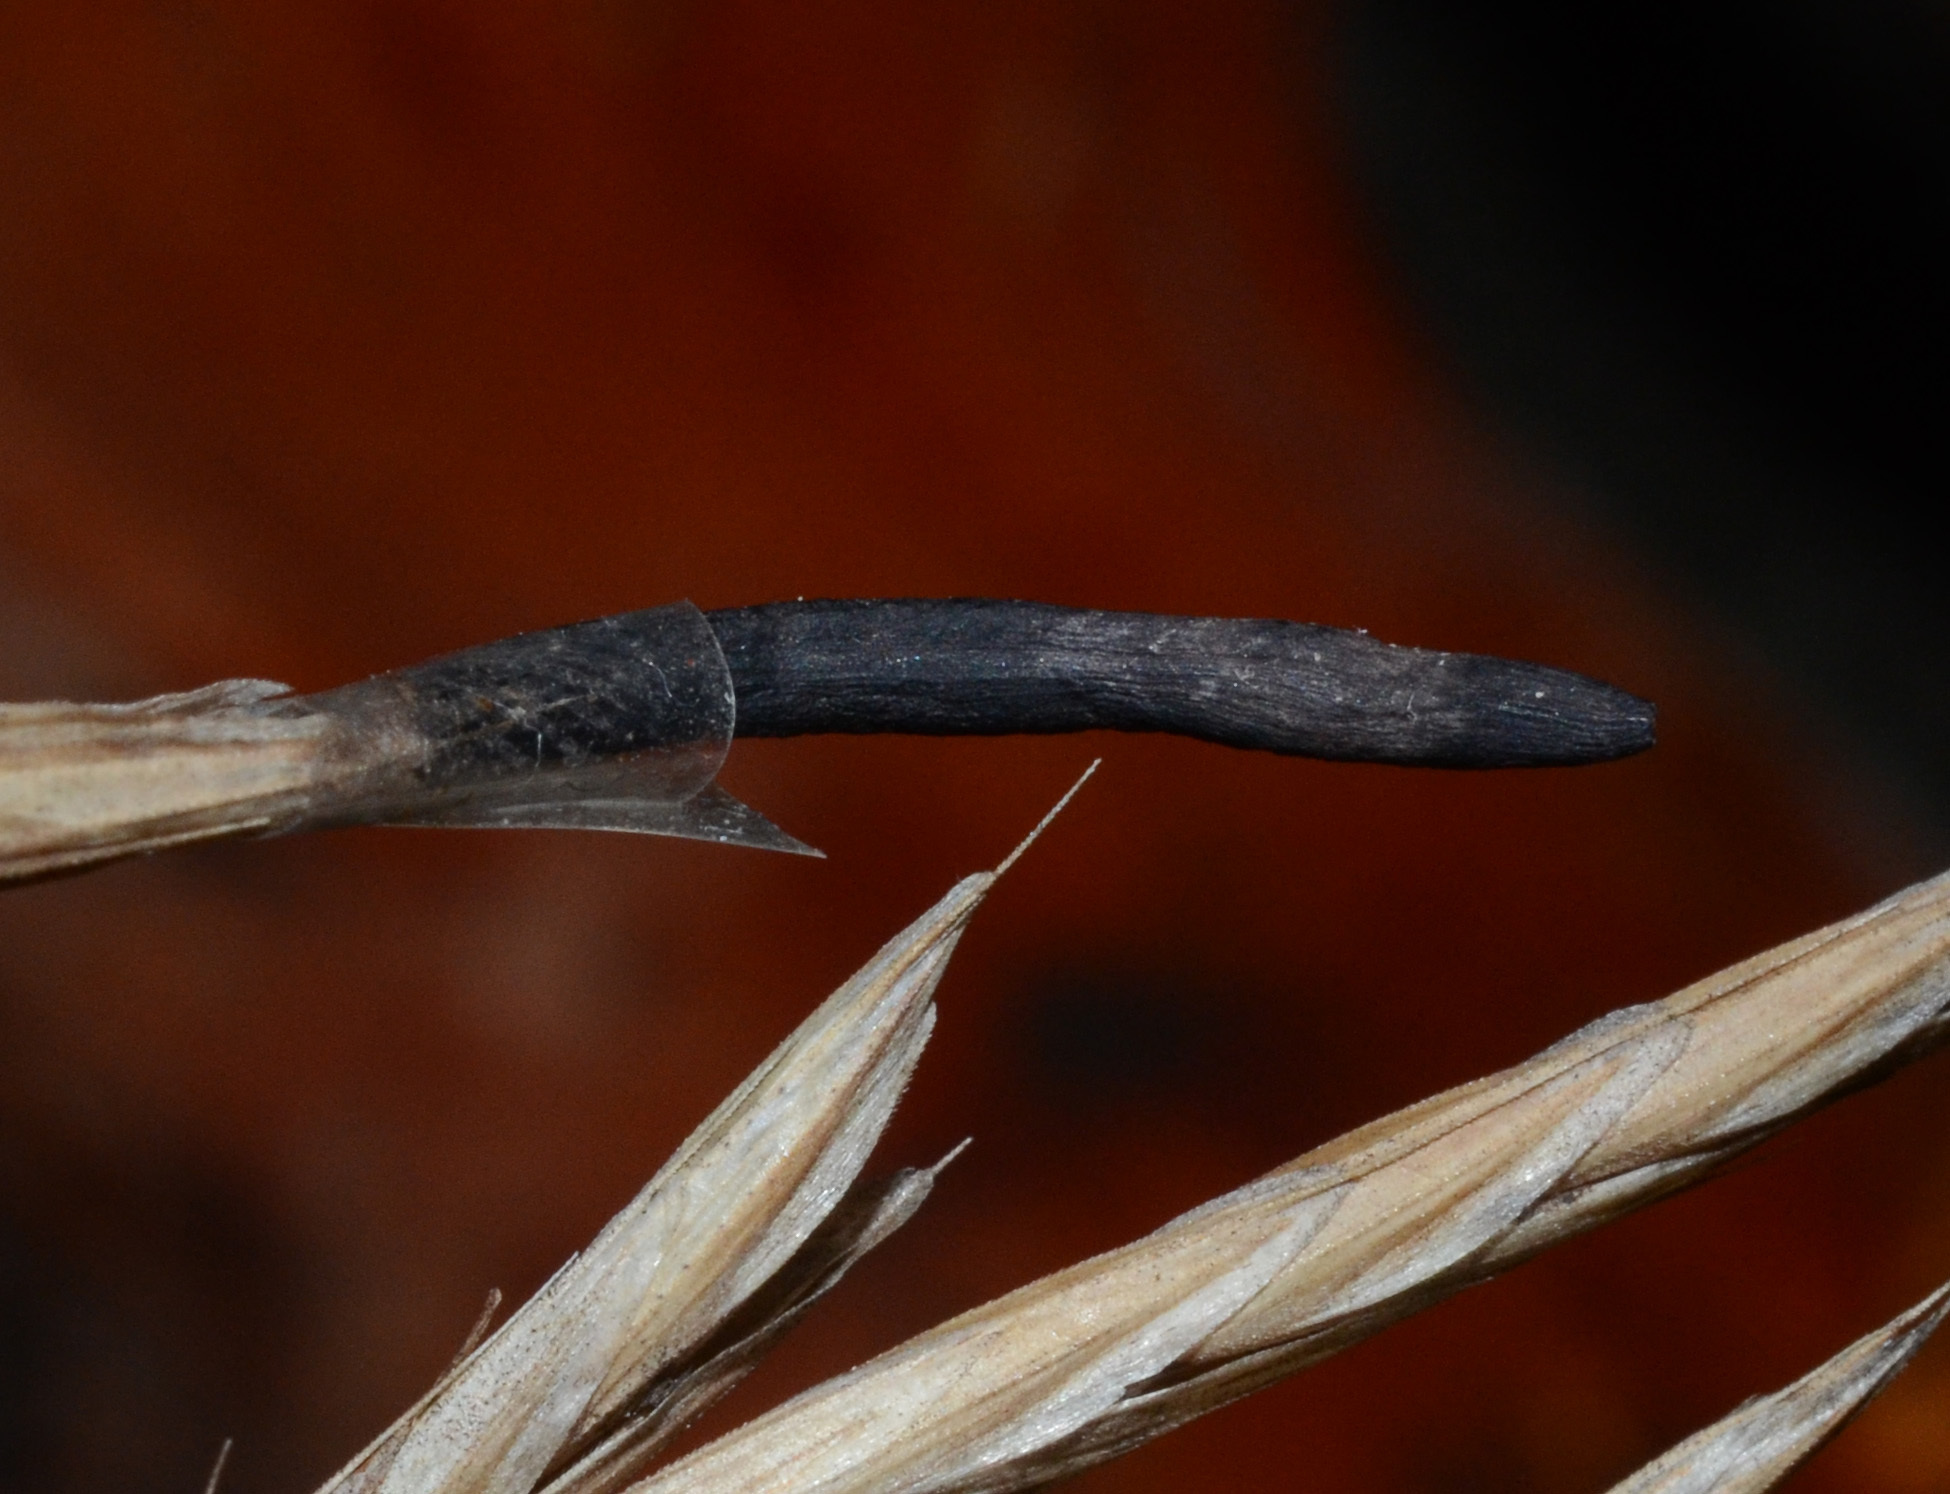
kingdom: Fungi
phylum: Ascomycota
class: Sordariomycetes
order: Hypocreales
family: Clavicipitaceae
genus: Claviceps
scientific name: Claviceps purpurea
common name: Rye ergot
